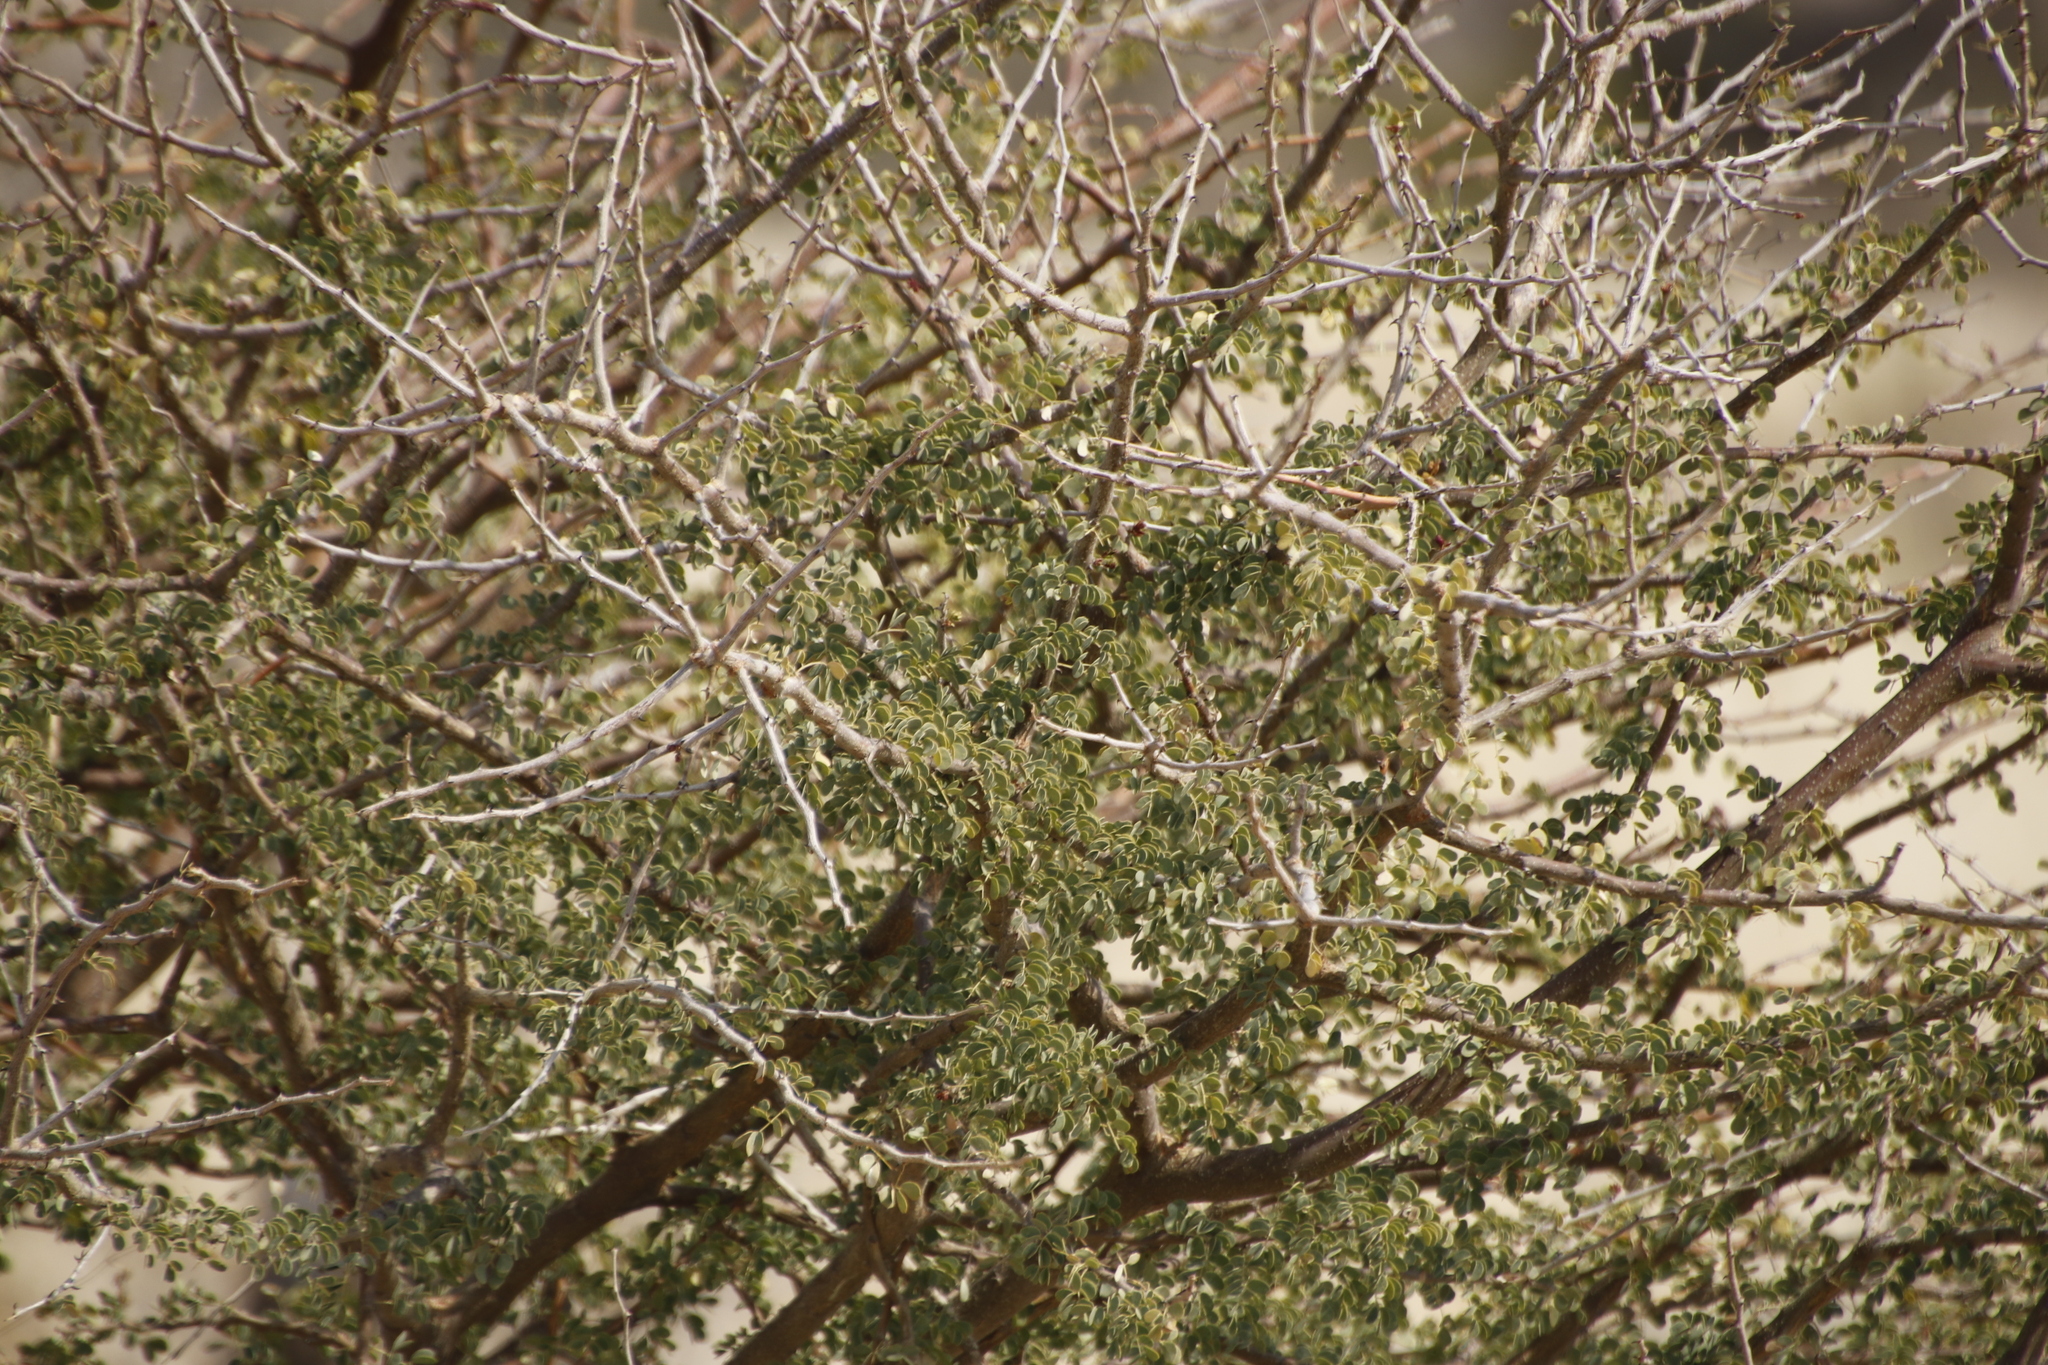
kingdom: Plantae
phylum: Tracheophyta
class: Magnoliopsida
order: Fabales
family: Fabaceae
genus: Senegalia
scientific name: Senegalia mellifera
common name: Hookthorn
